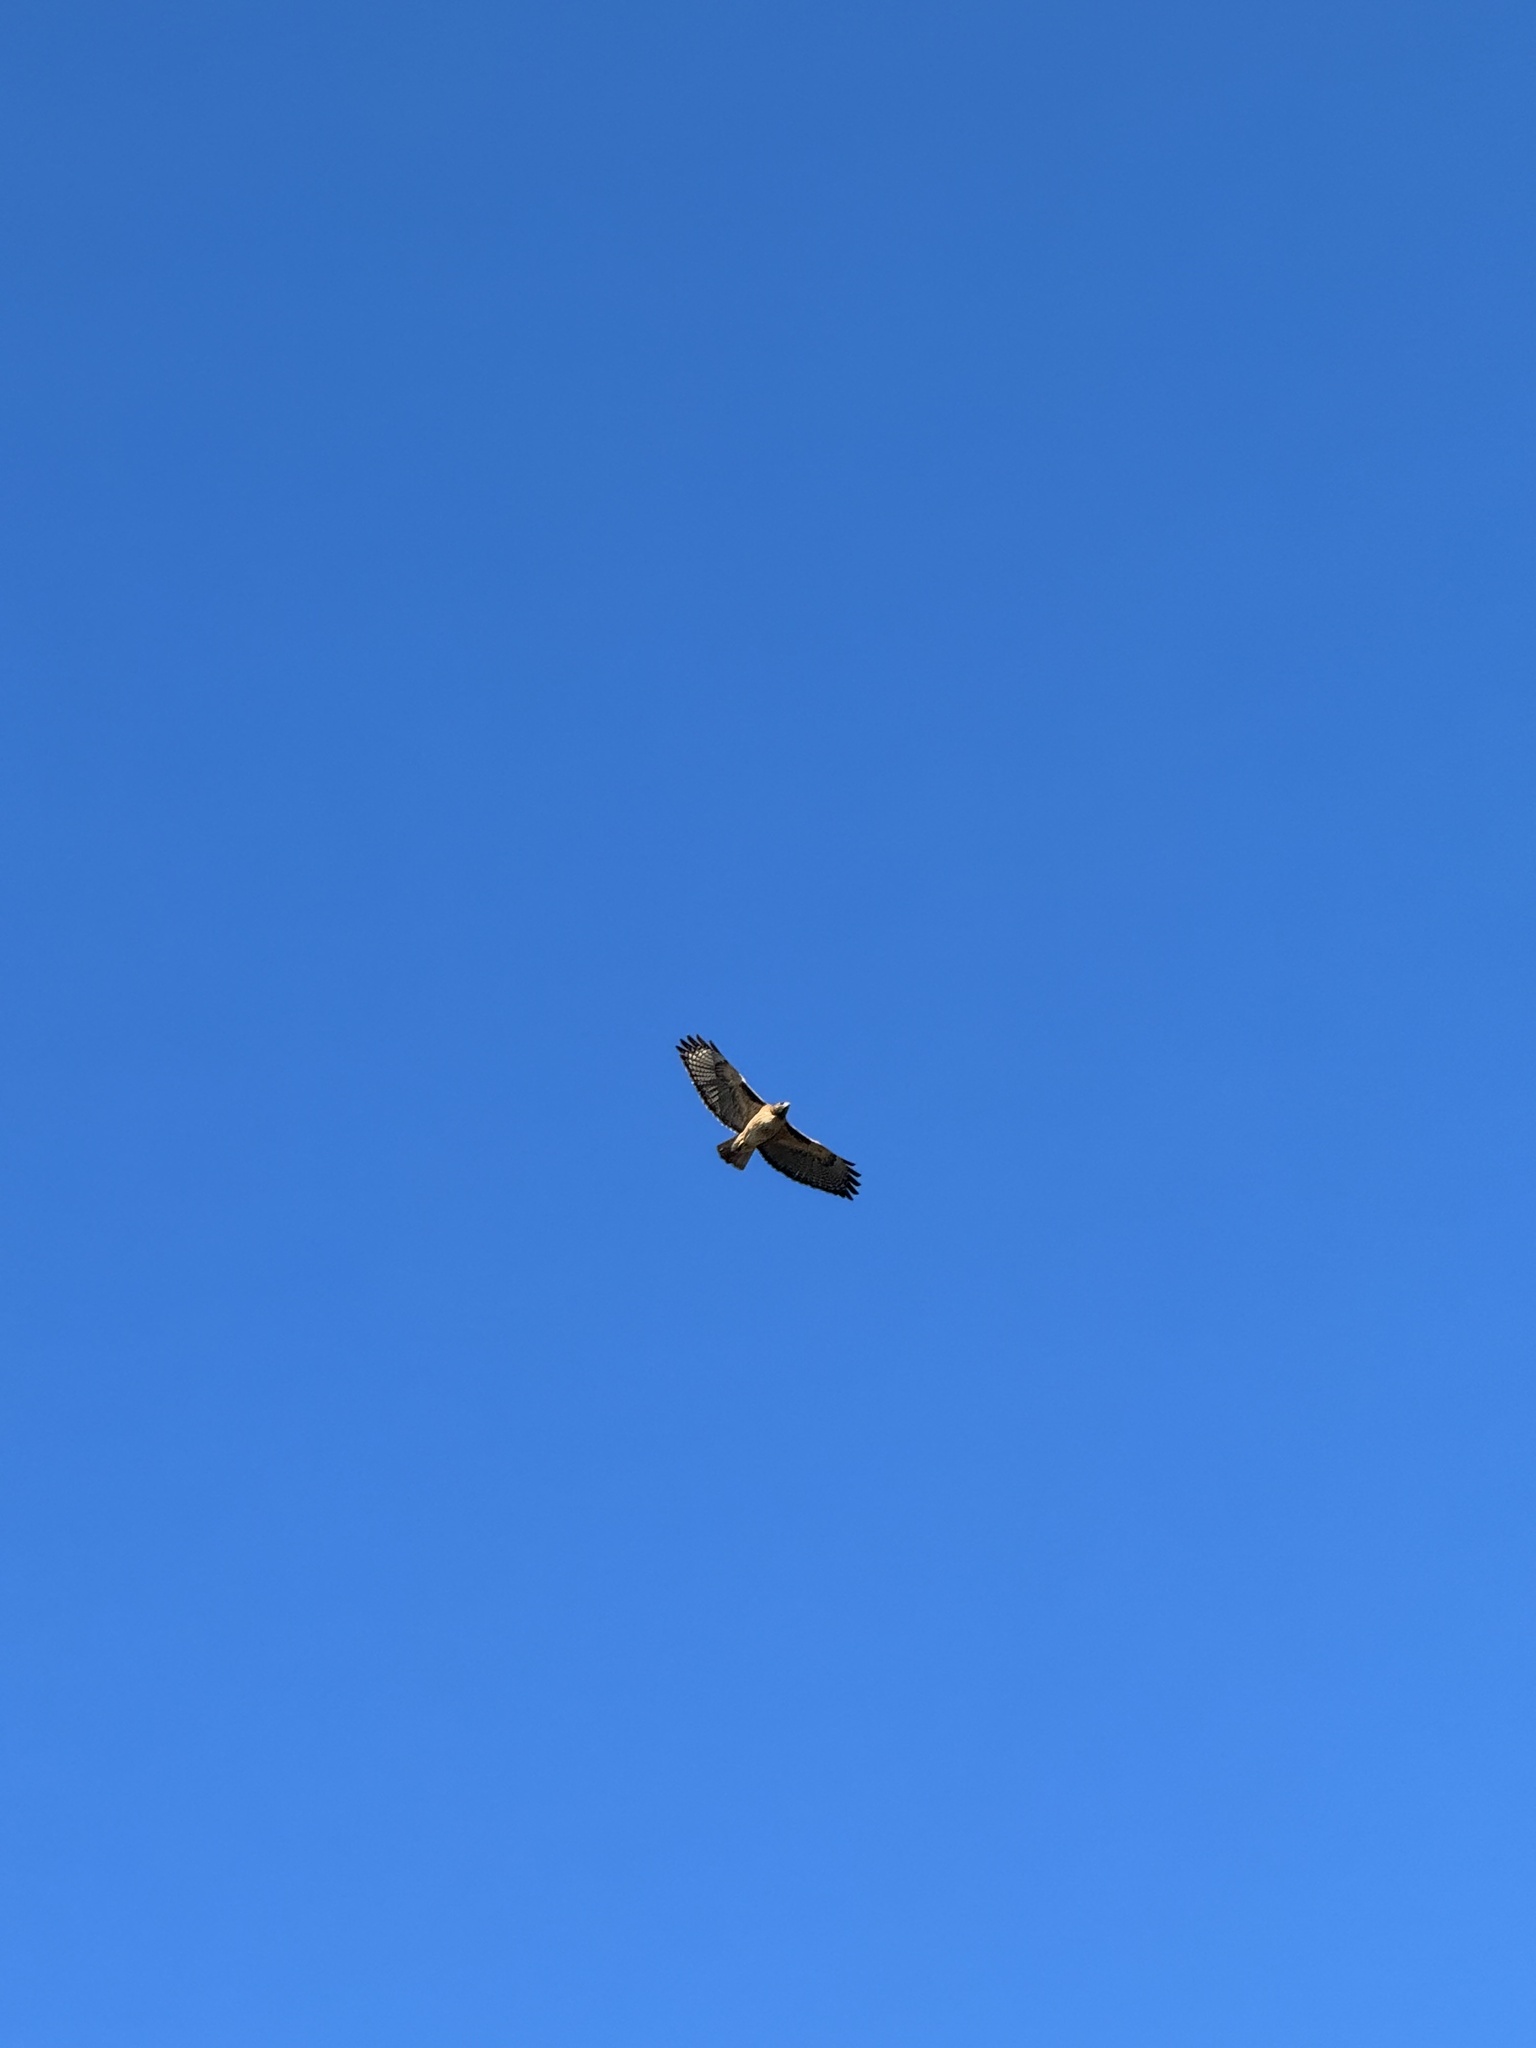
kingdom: Animalia
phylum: Chordata
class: Aves
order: Accipitriformes
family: Accipitridae
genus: Buteo
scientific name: Buteo jamaicensis
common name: Red-tailed hawk
